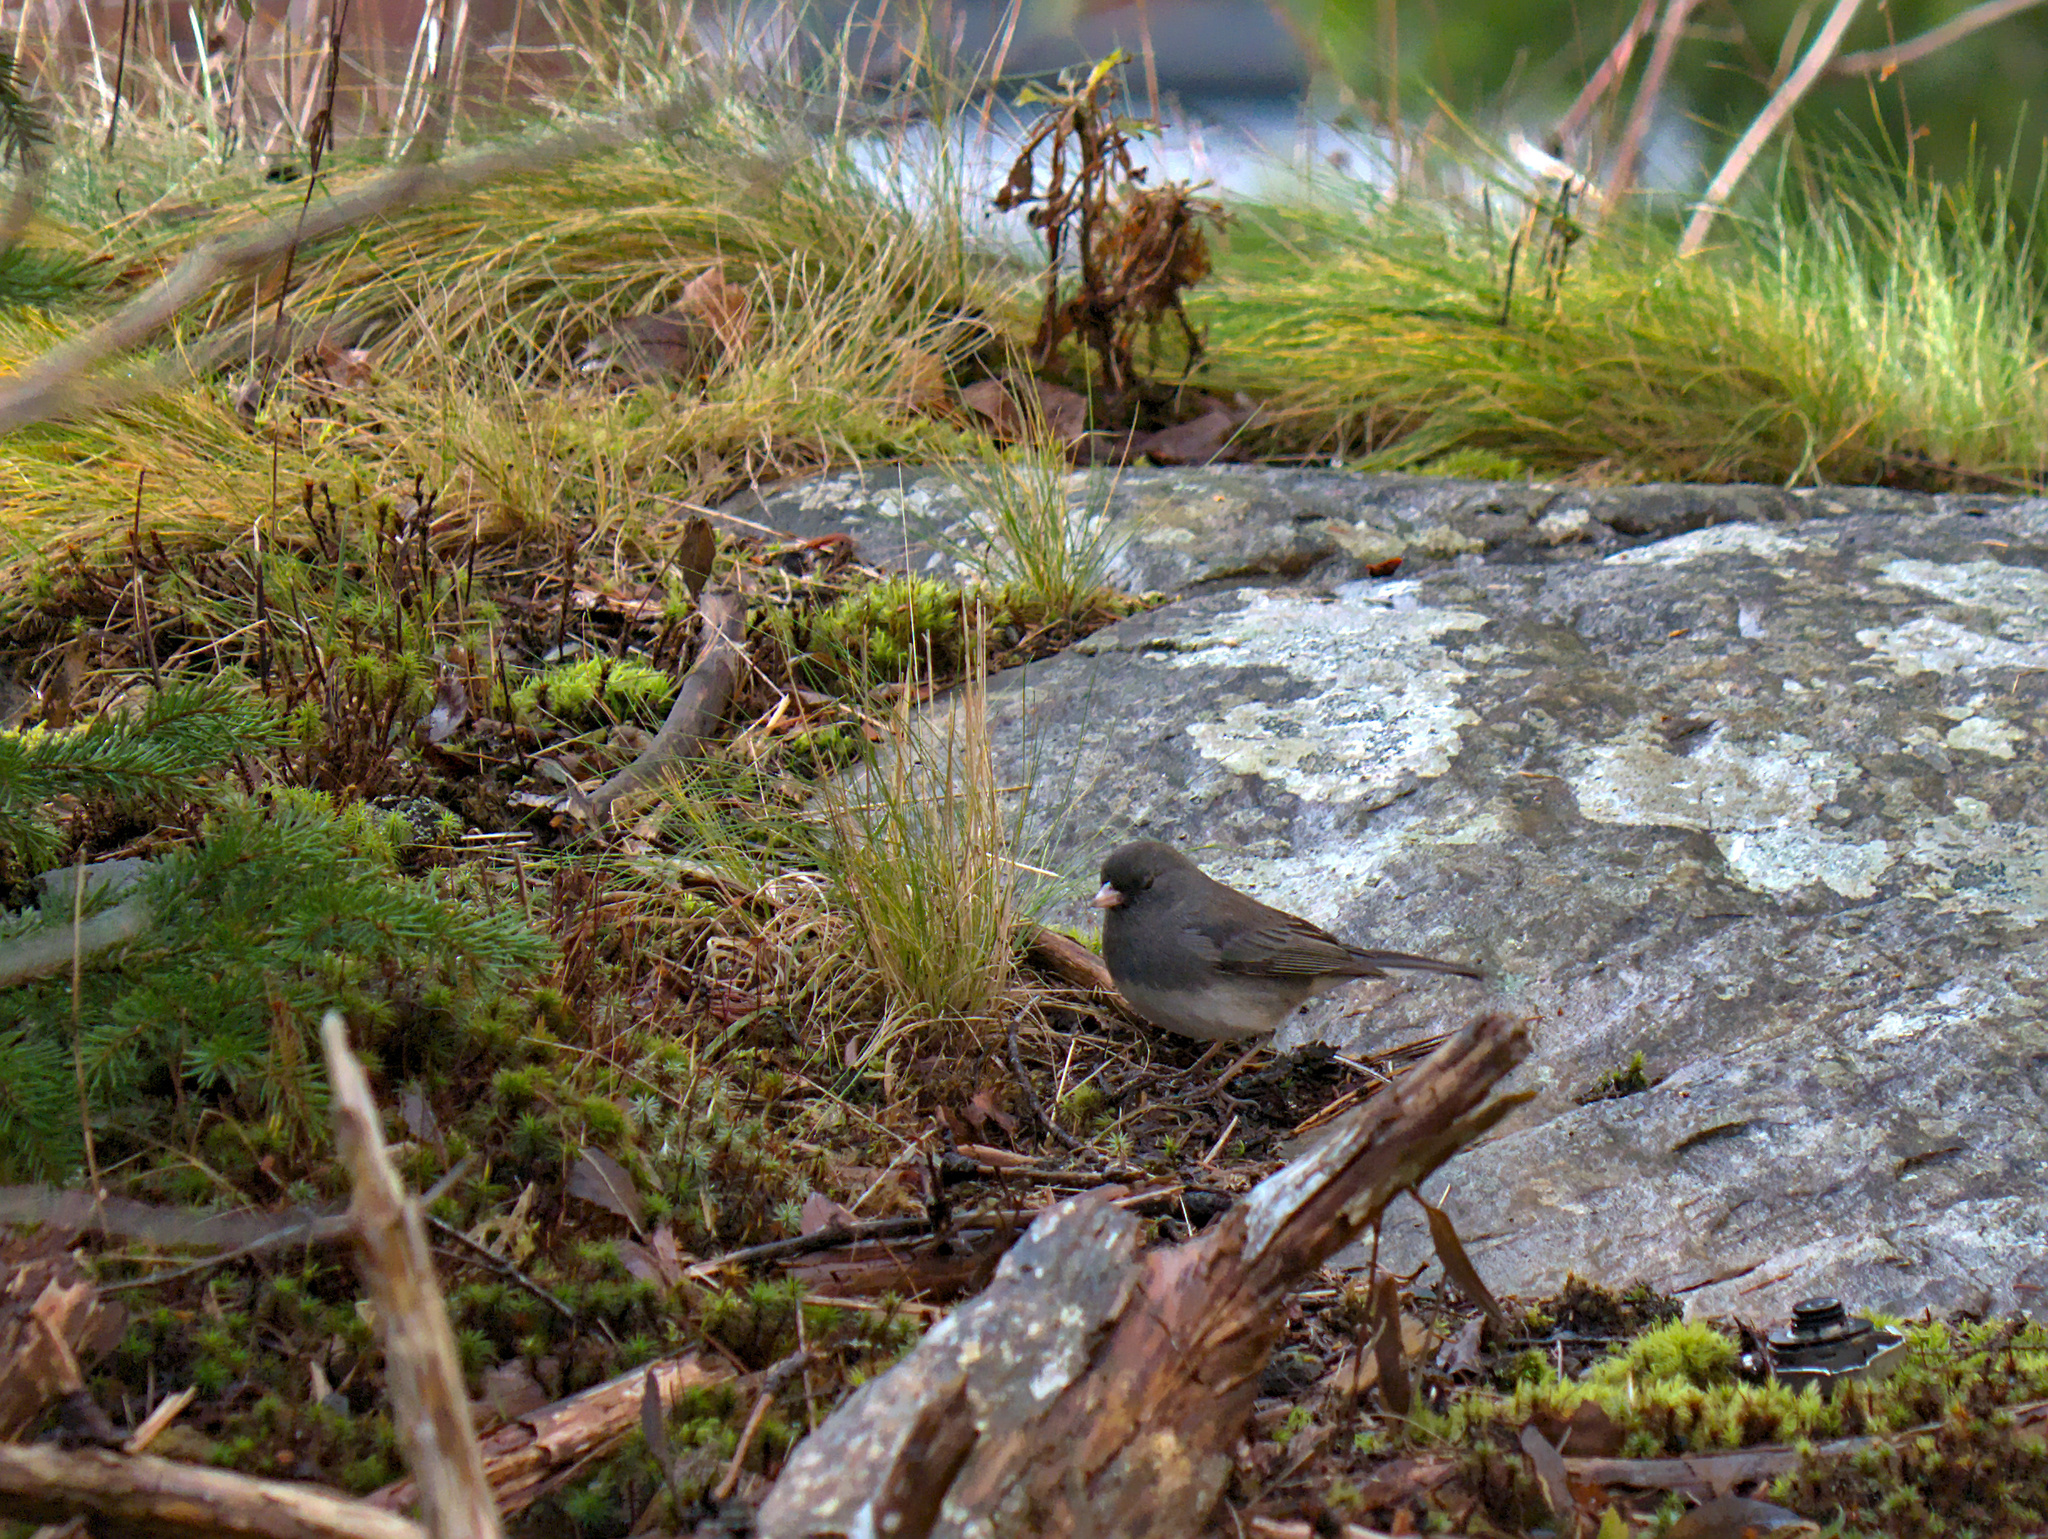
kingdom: Animalia
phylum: Chordata
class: Aves
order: Passeriformes
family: Passerellidae
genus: Junco
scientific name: Junco hyemalis
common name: Dark-eyed junco
